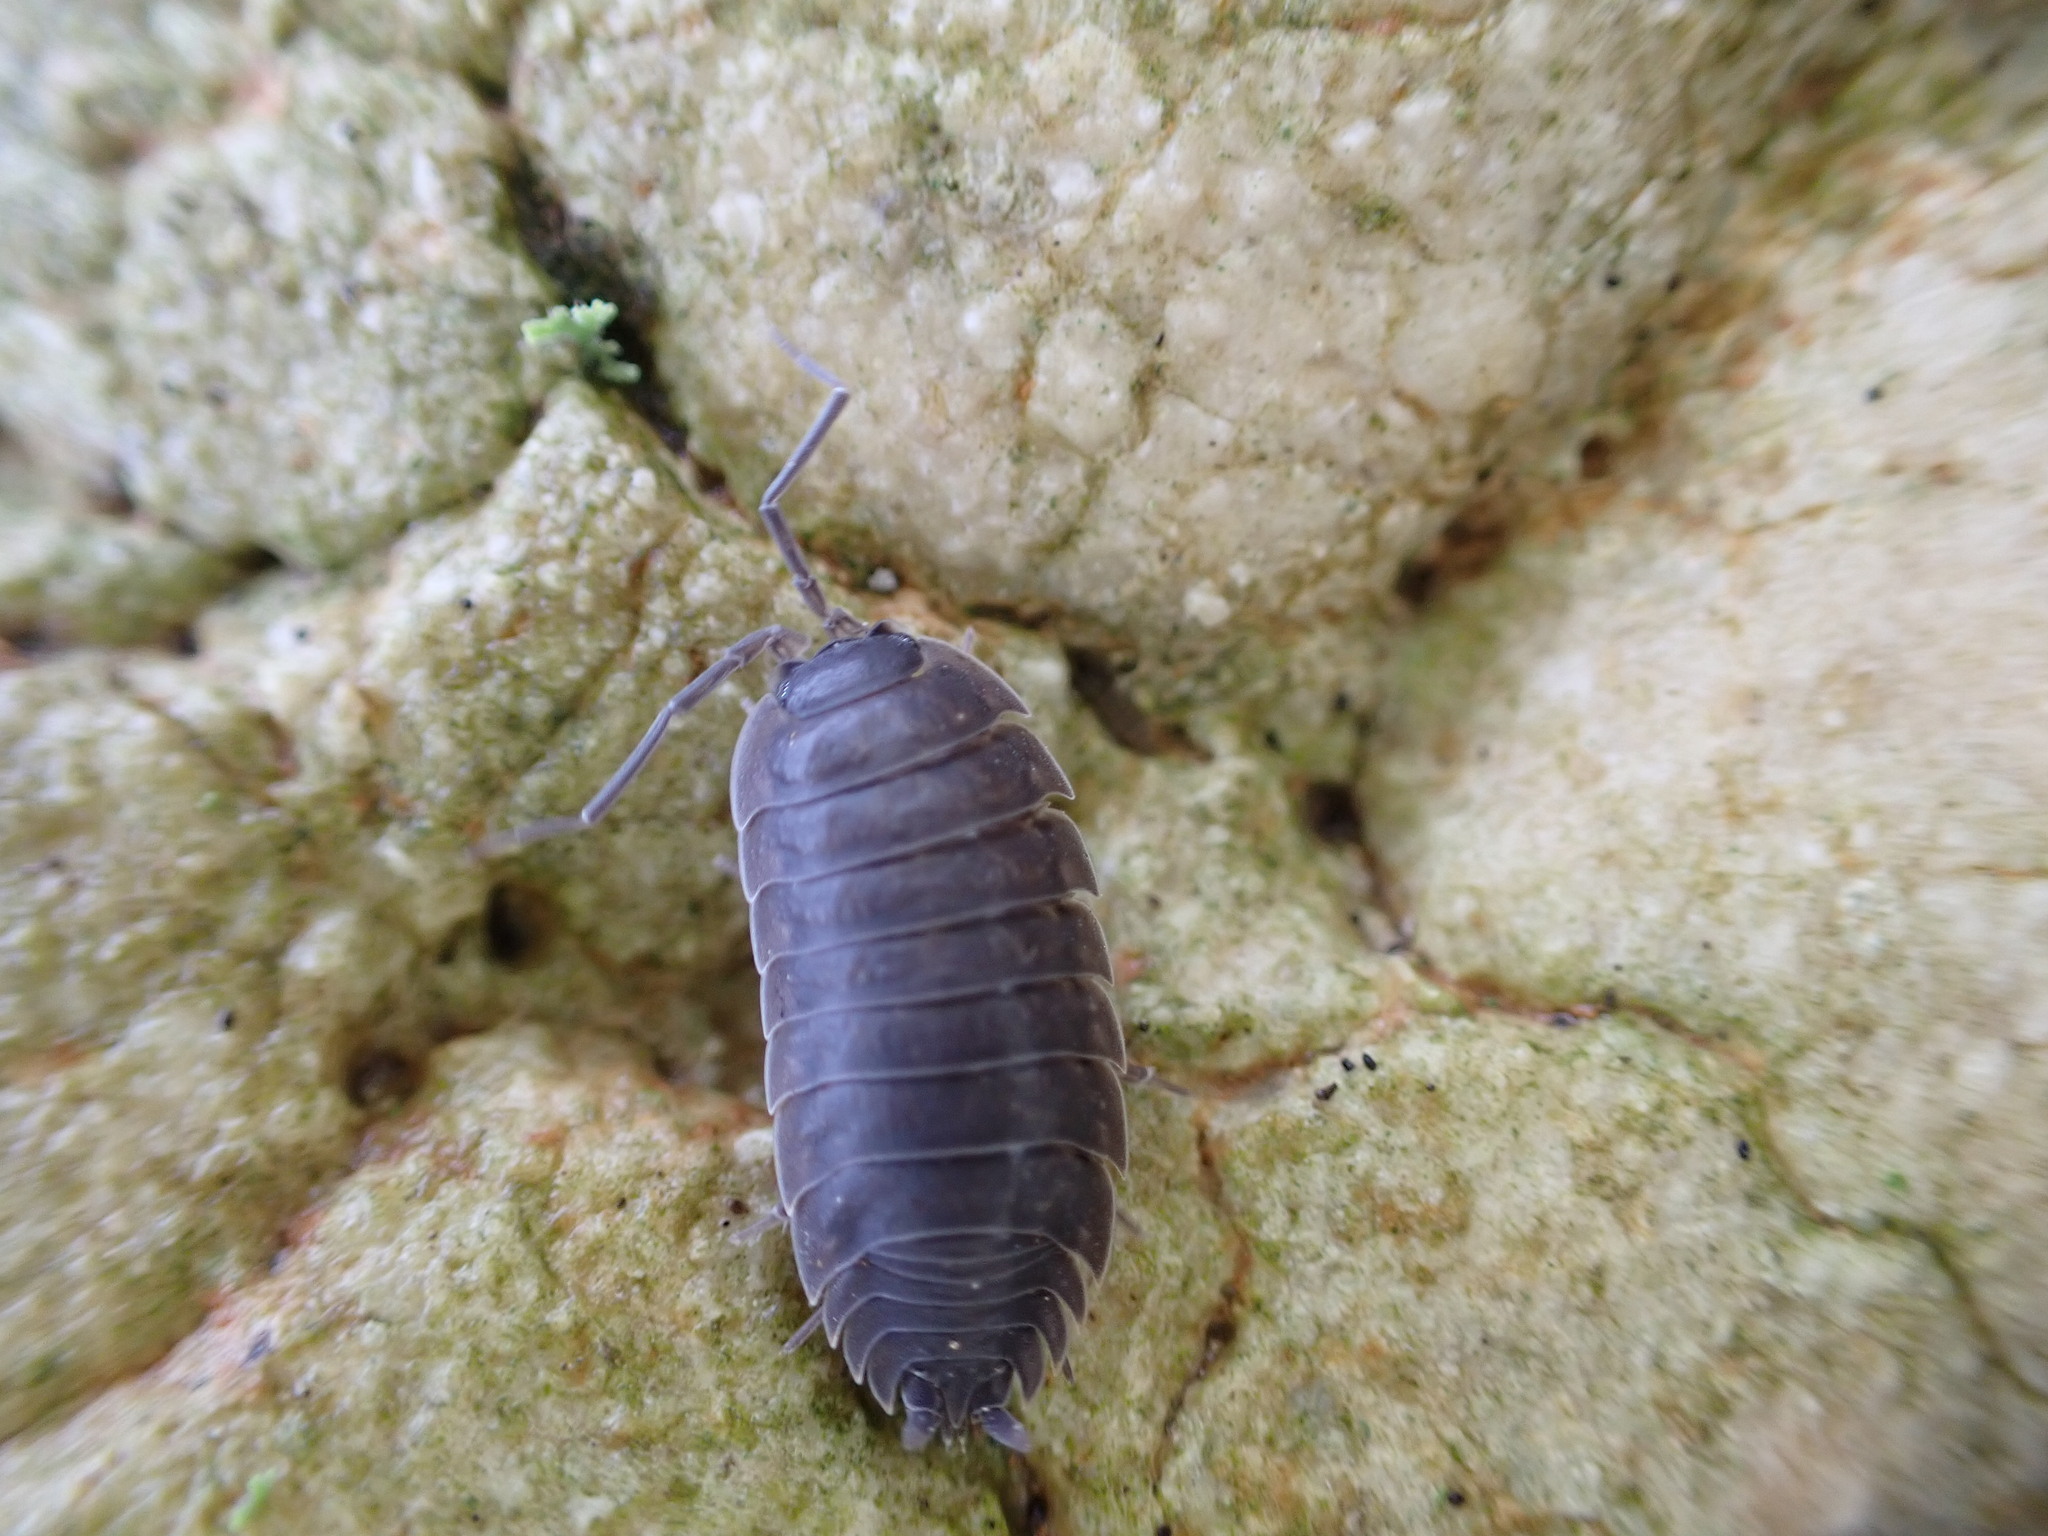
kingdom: Animalia
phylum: Arthropoda
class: Malacostraca
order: Isopoda
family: Porcellionidae
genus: Porcellio
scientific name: Porcellio orarum
